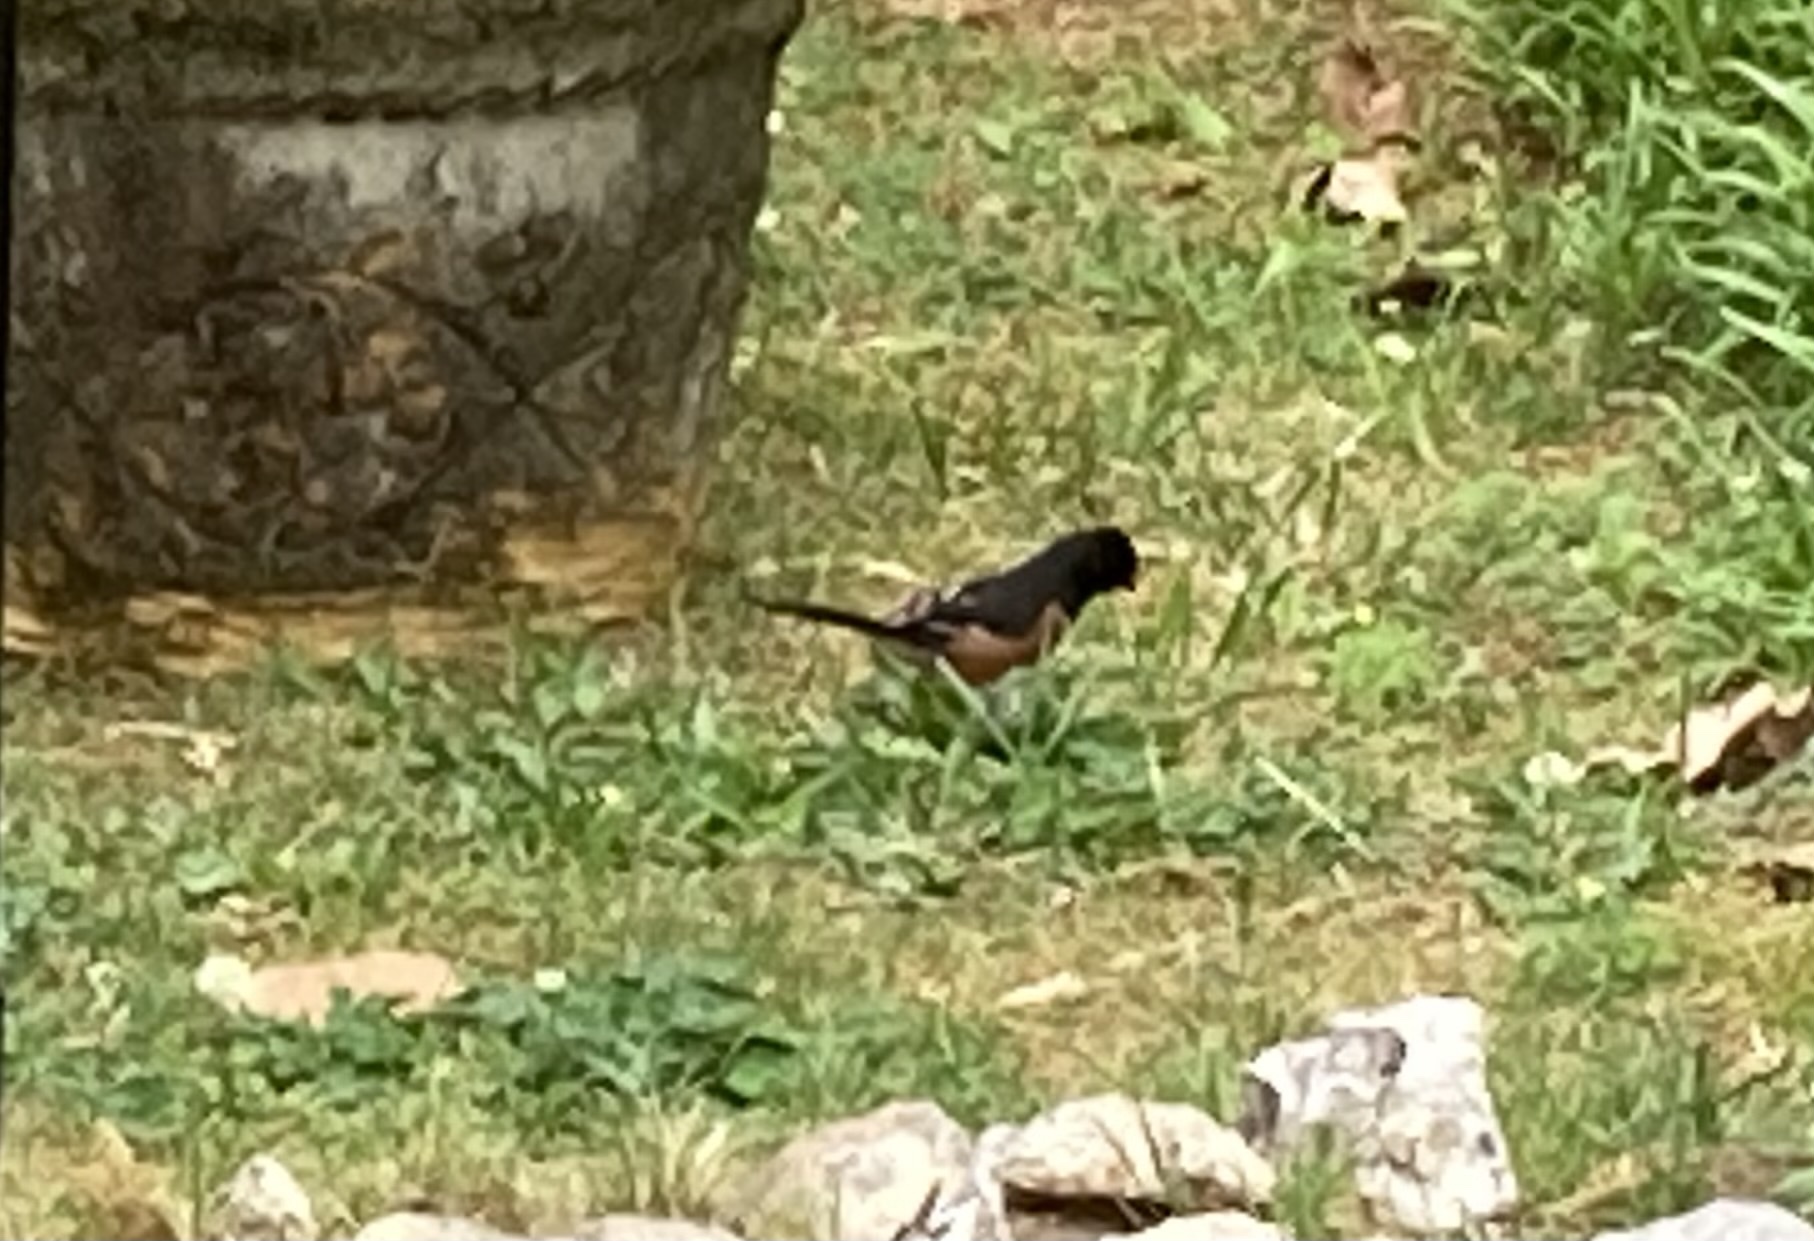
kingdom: Animalia
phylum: Chordata
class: Aves
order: Passeriformes
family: Passerellidae
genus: Pipilo
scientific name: Pipilo erythrophthalmus
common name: Eastern towhee
